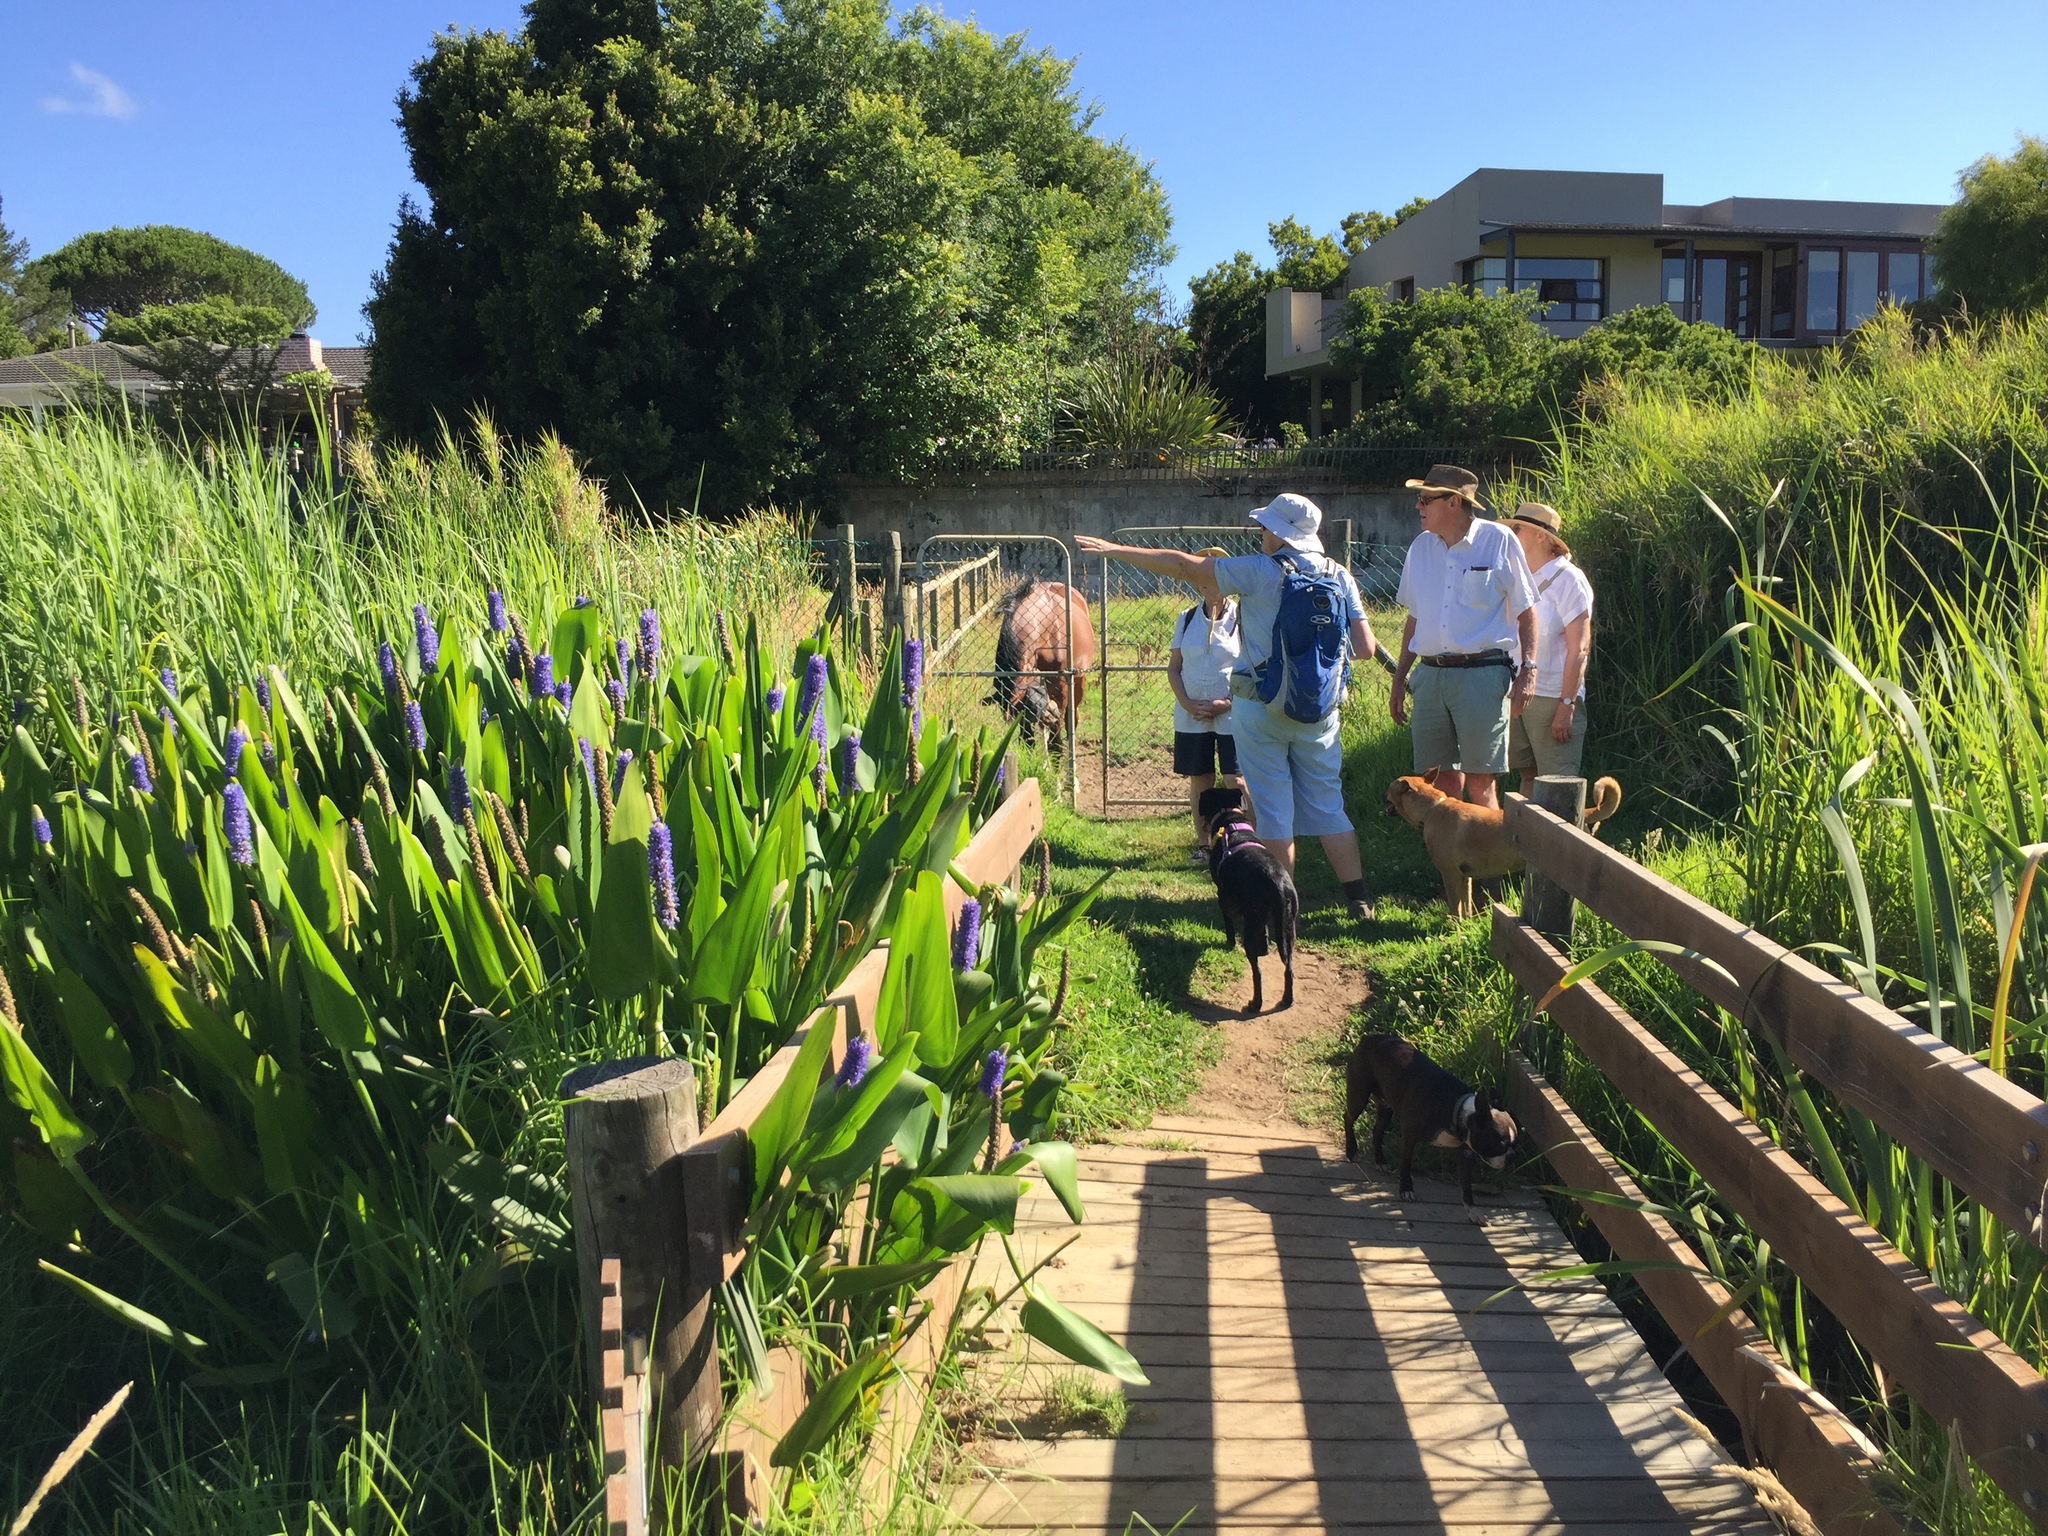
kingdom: Plantae
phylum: Tracheophyta
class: Liliopsida
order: Commelinales
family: Pontederiaceae
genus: Pontederia
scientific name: Pontederia cordata
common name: Pickerelweed
